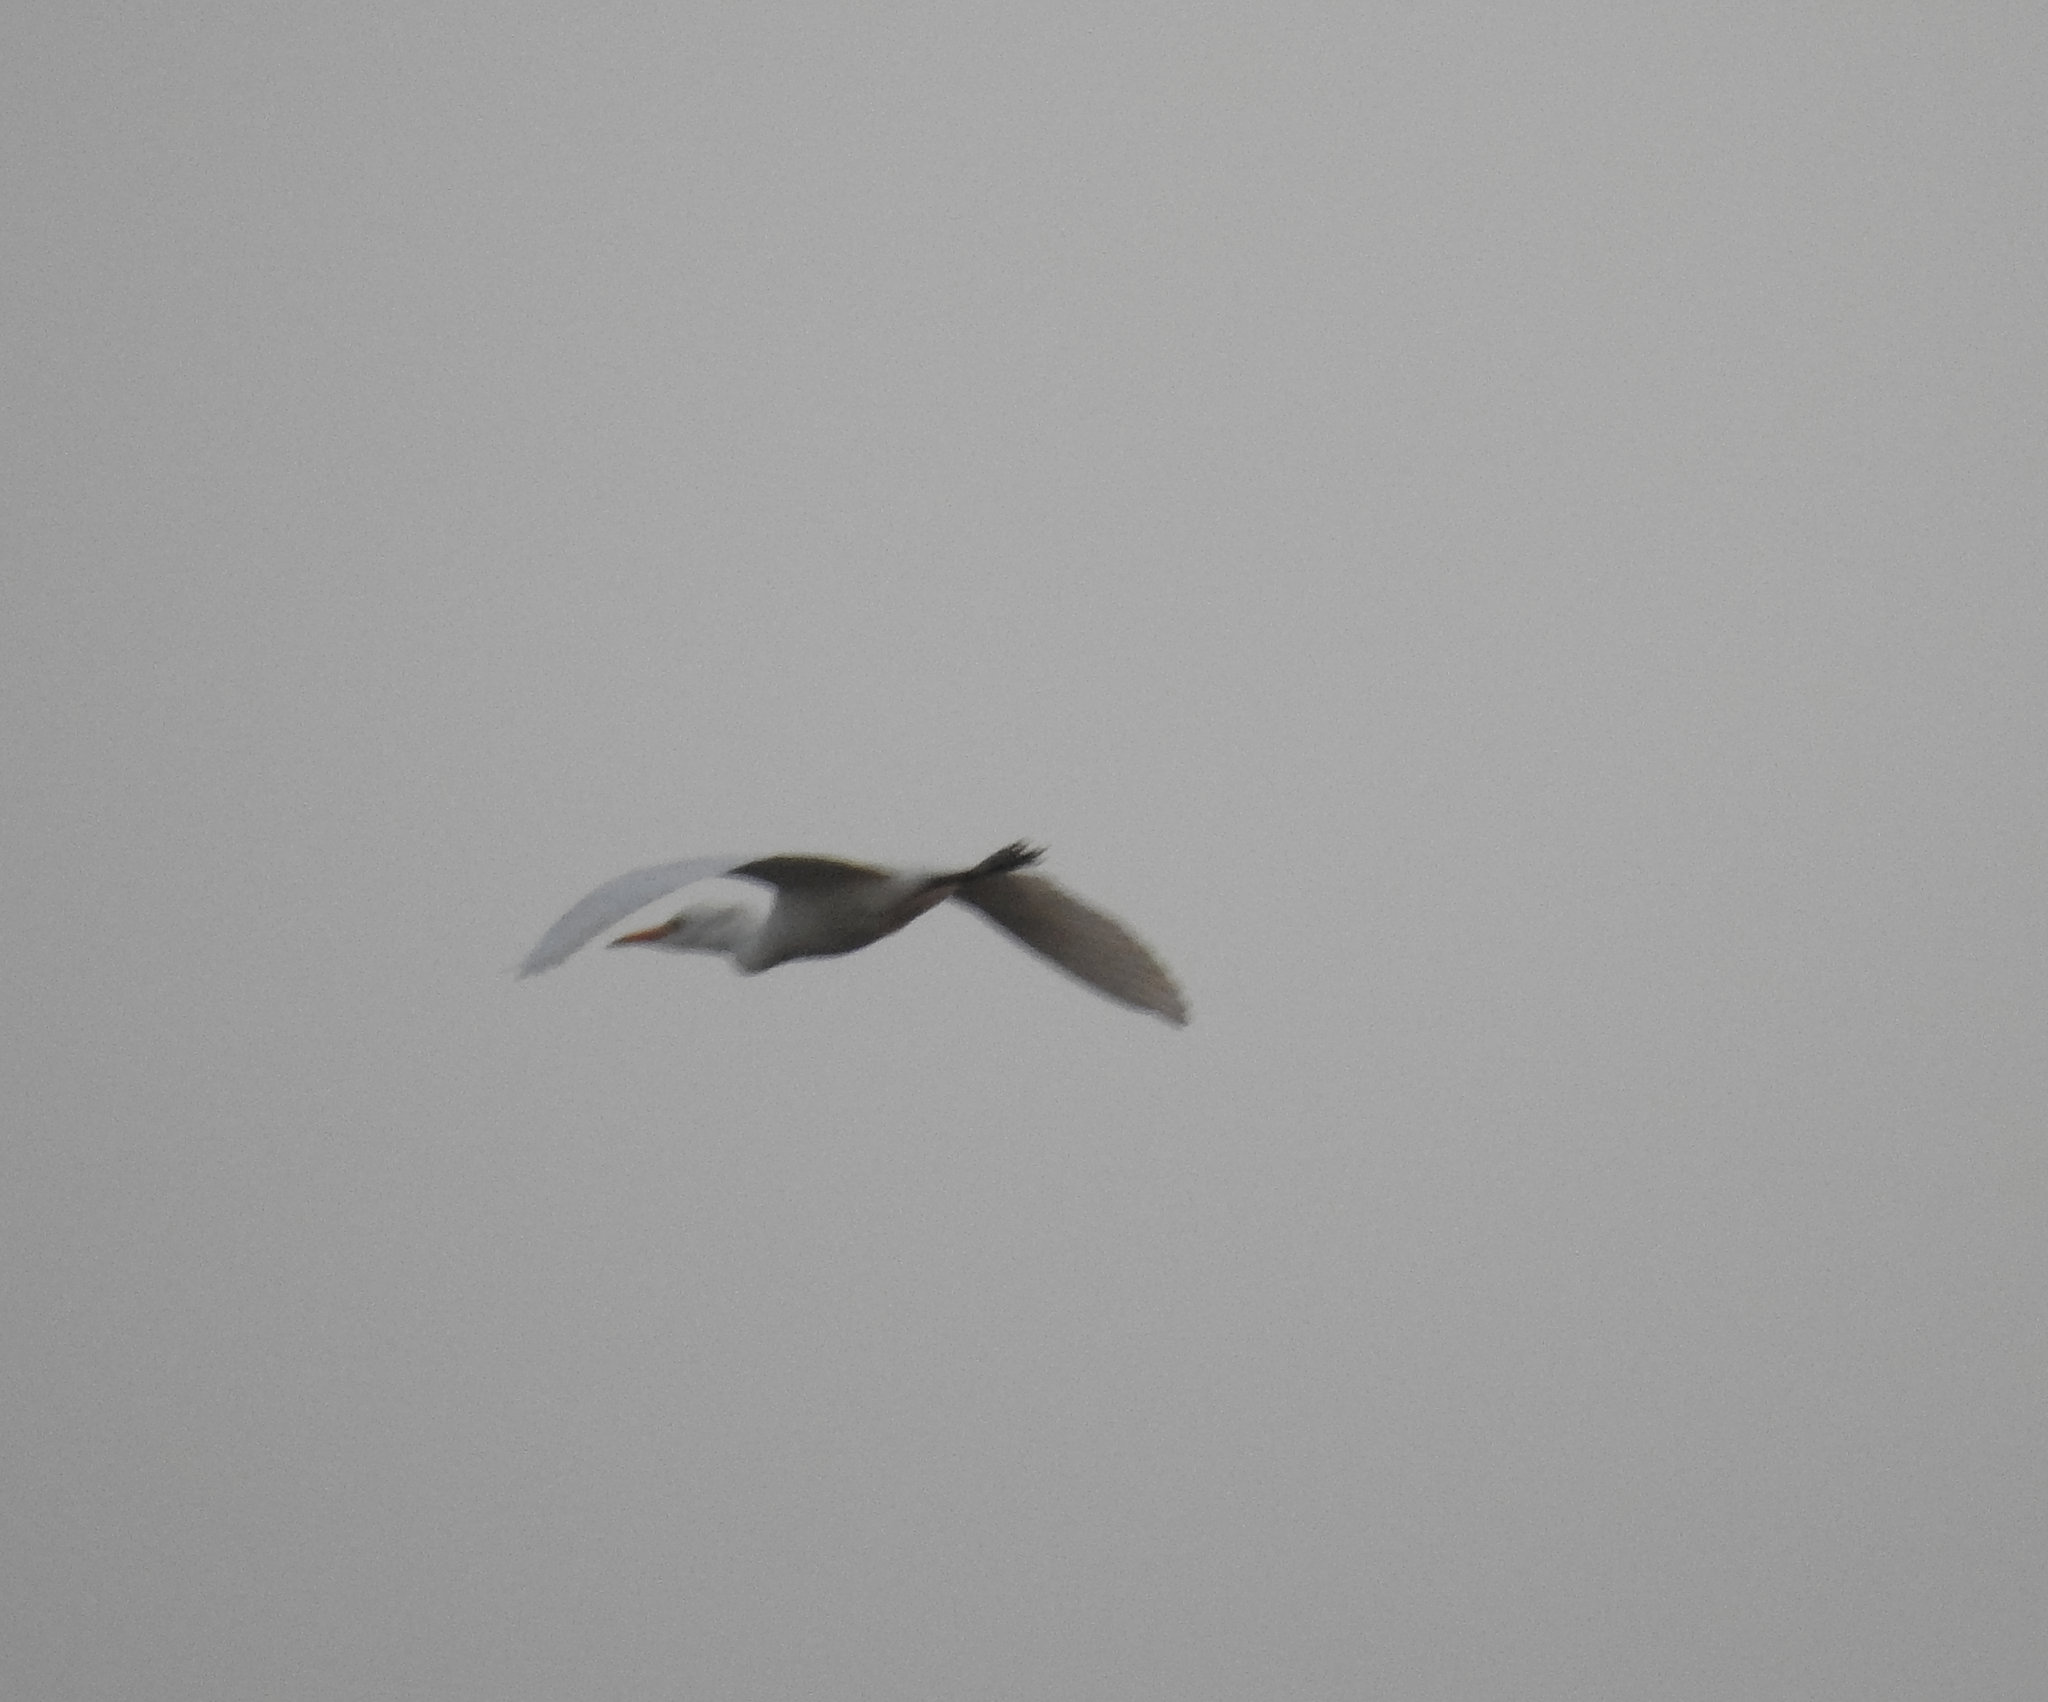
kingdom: Animalia
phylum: Chordata
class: Aves
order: Pelecaniformes
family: Ardeidae
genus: Bubulcus
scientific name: Bubulcus ibis
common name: Cattle egret
